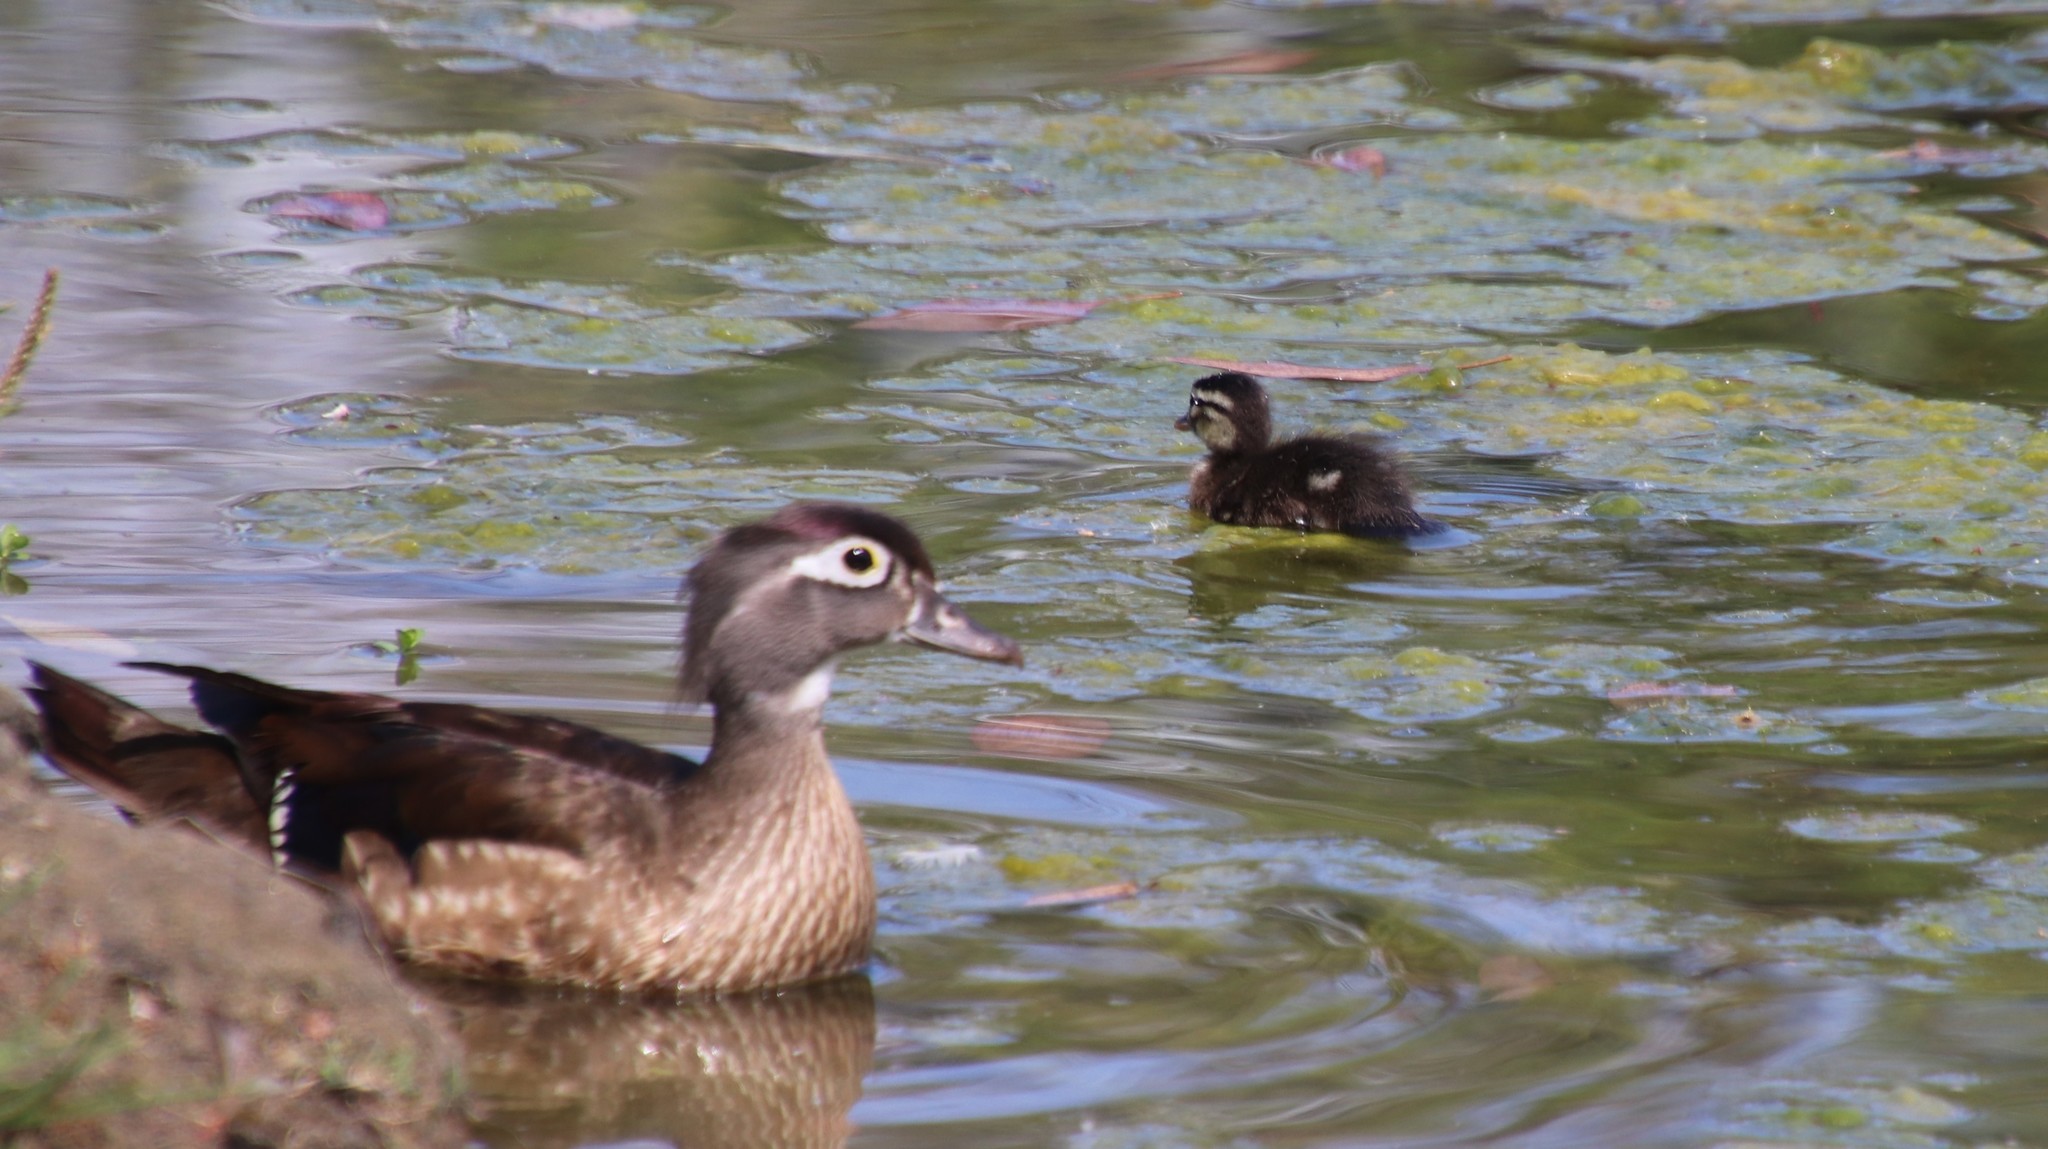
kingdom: Animalia
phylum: Chordata
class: Aves
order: Anseriformes
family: Anatidae
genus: Aix
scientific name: Aix sponsa
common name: Wood duck
